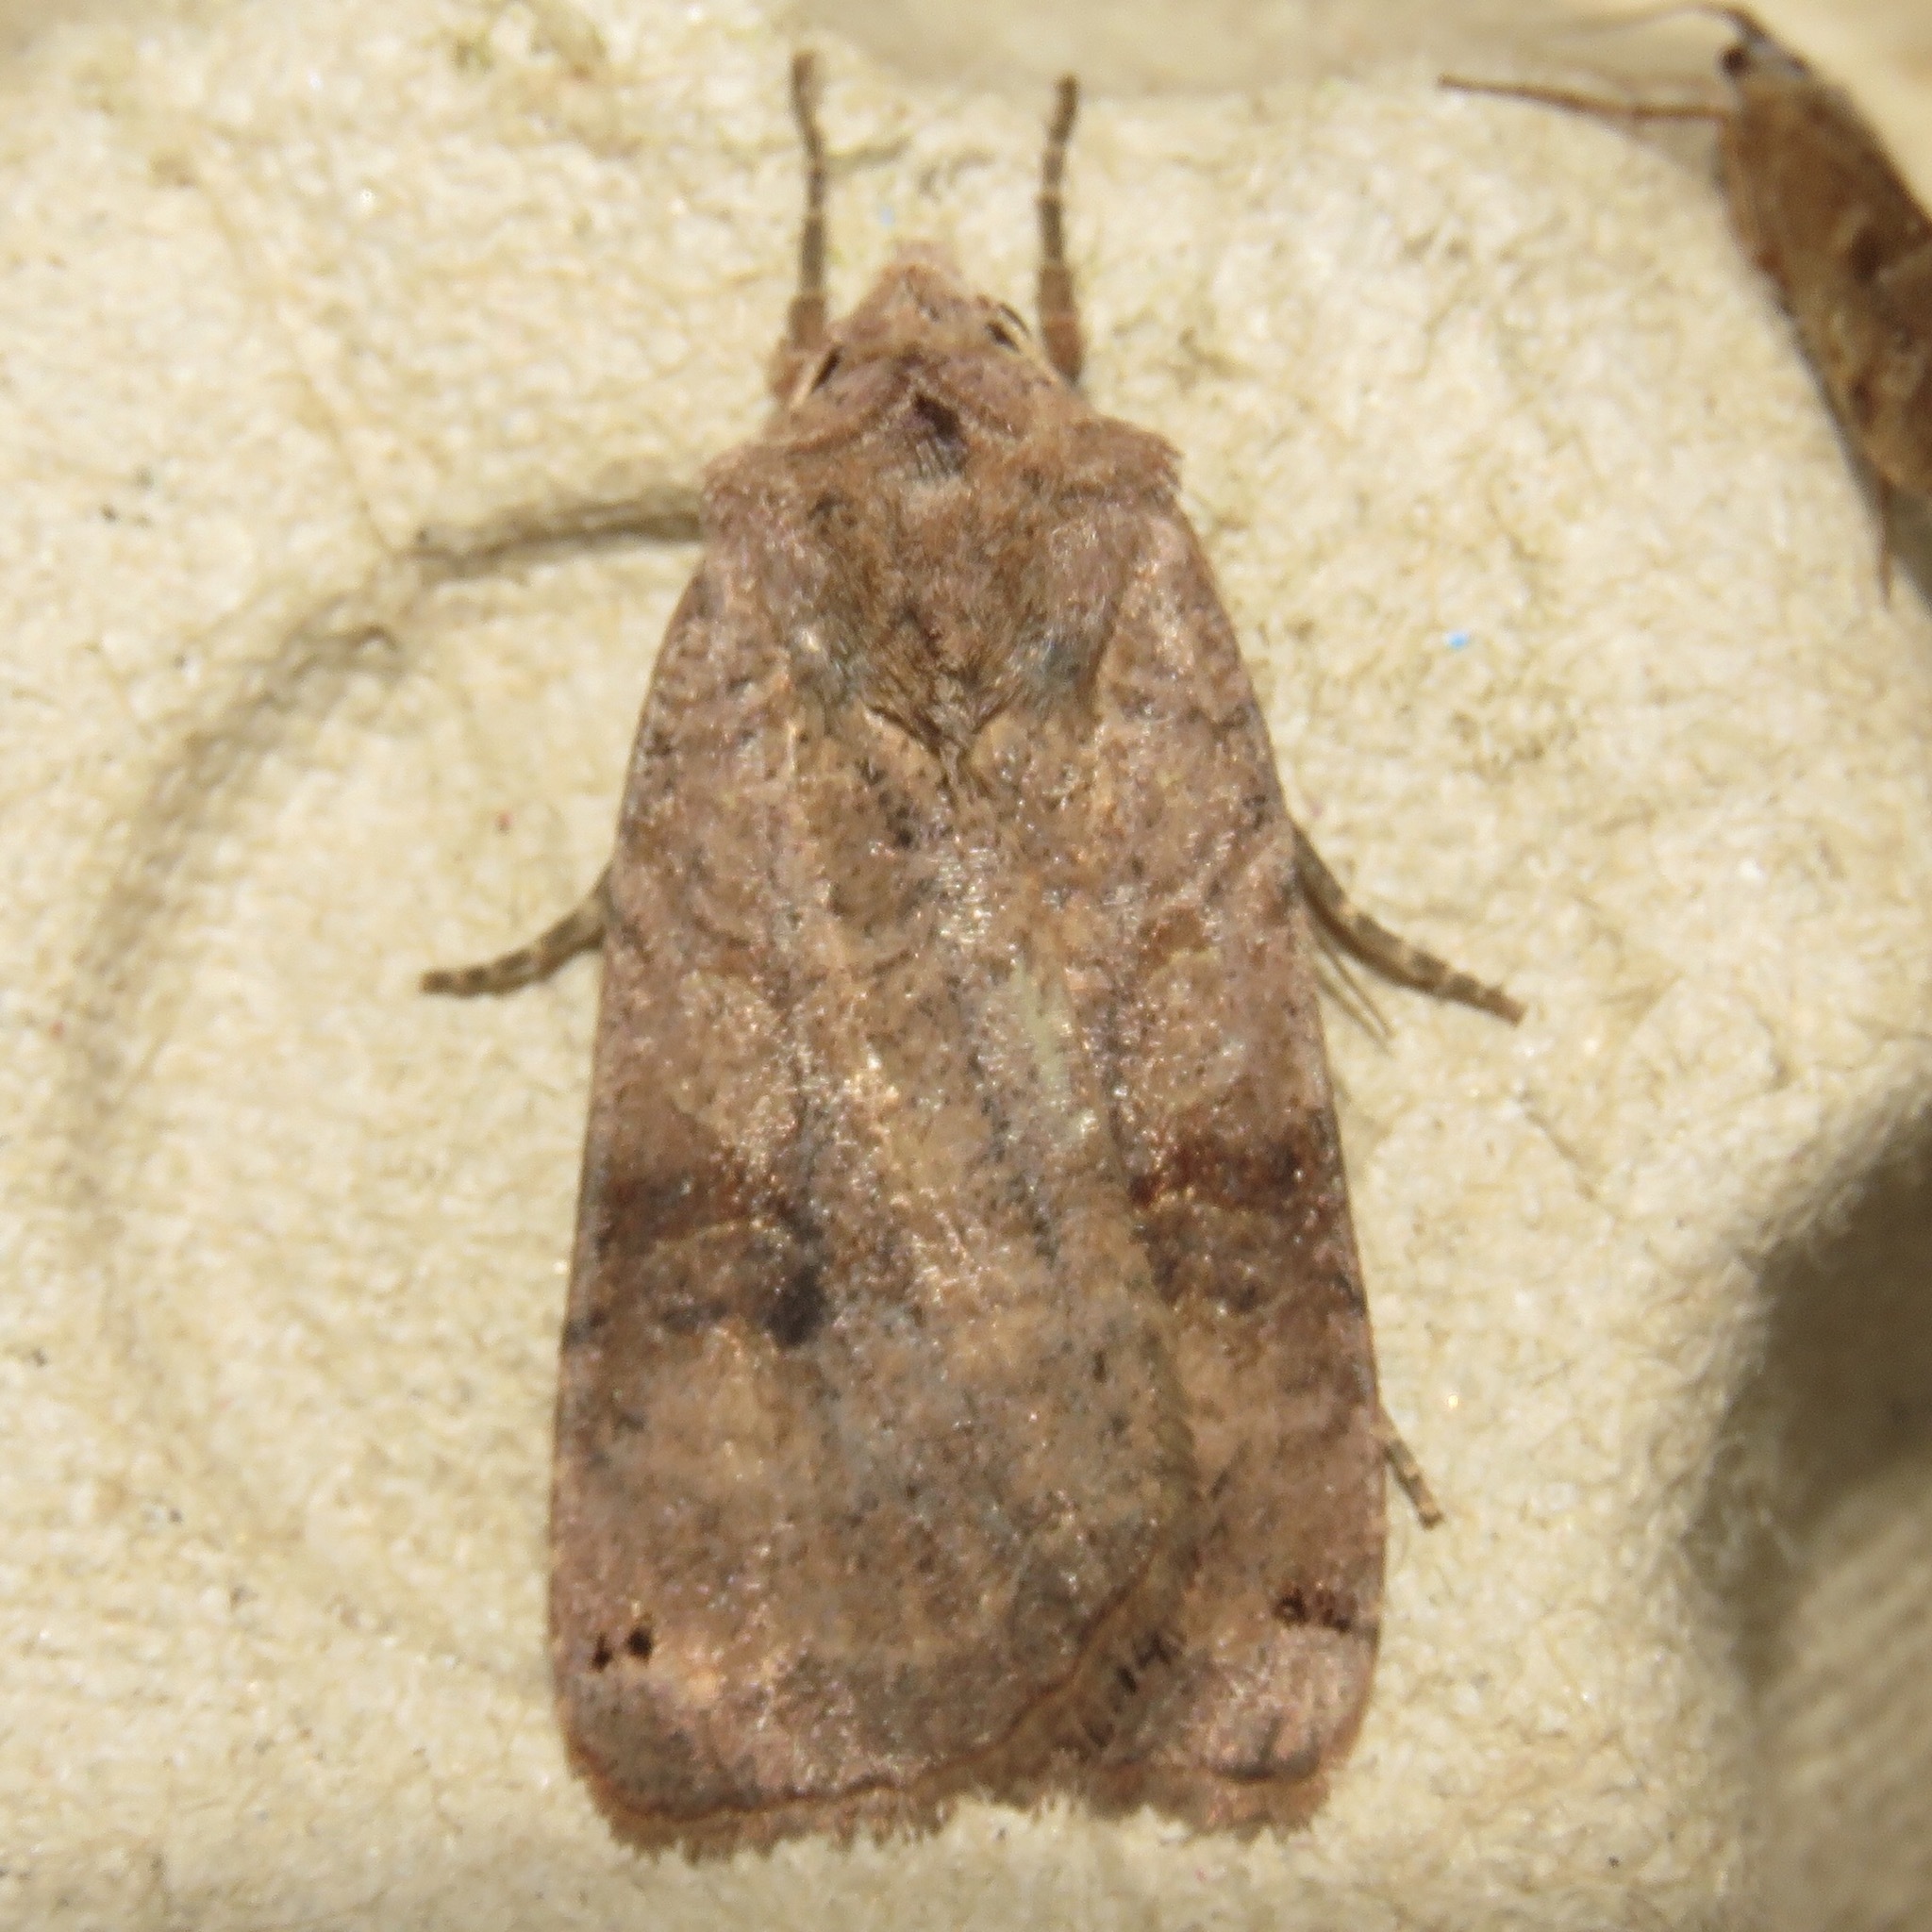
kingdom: Animalia
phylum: Arthropoda
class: Insecta
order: Lepidoptera
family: Noctuidae
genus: Xestia
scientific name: Xestia smithii
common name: Smith's dart
